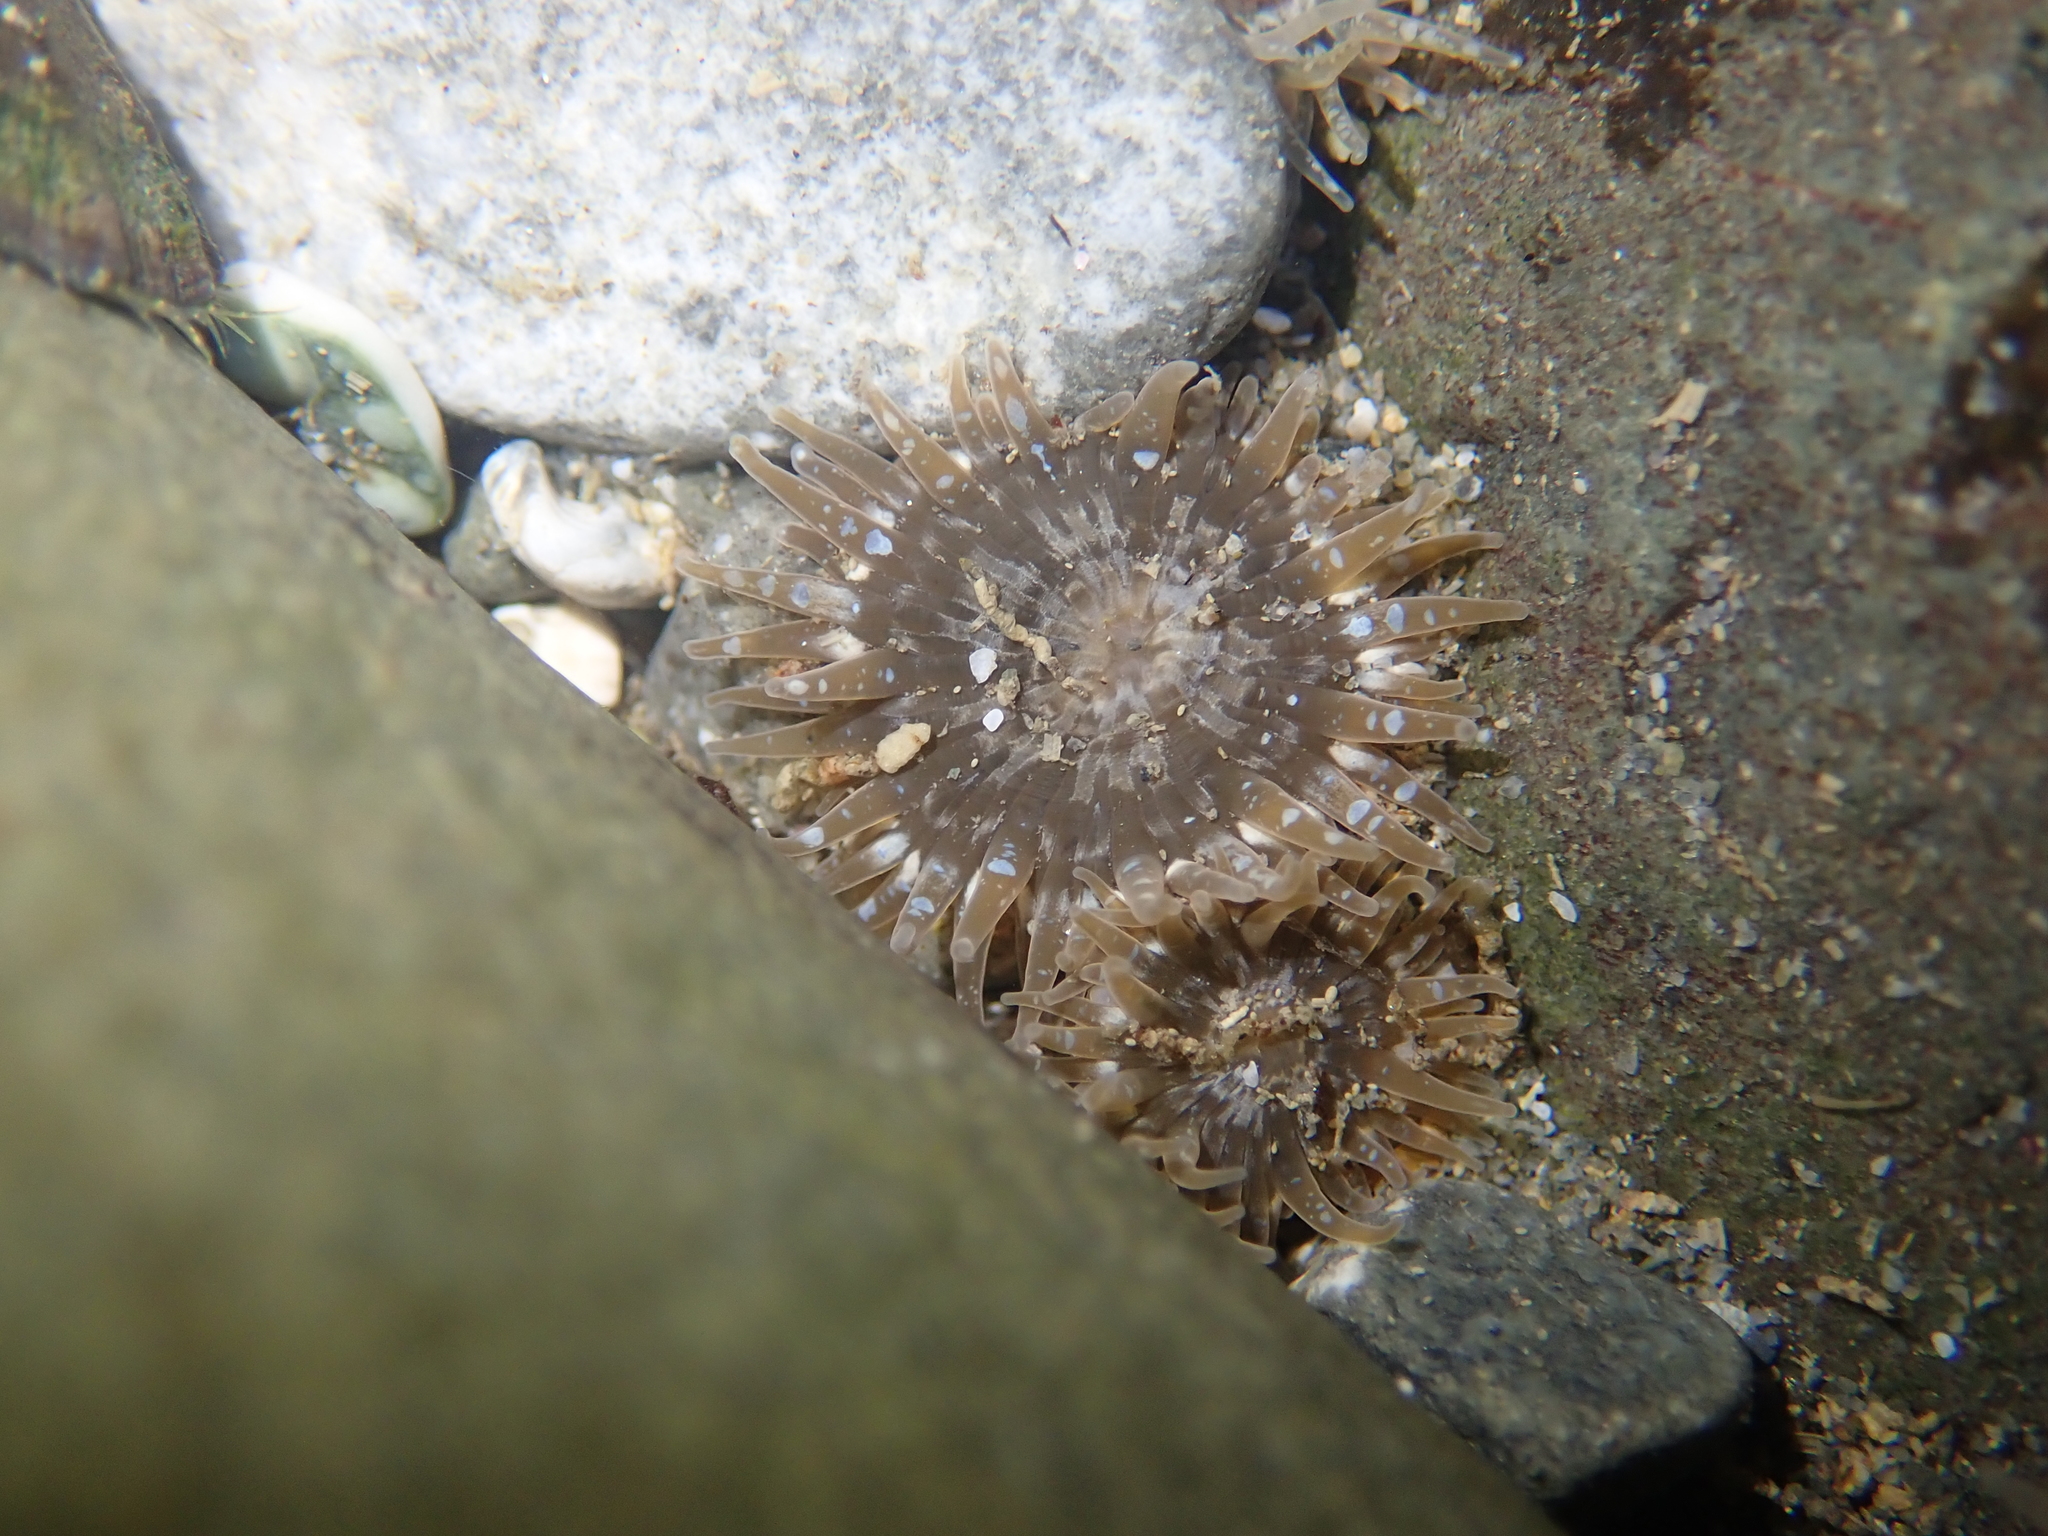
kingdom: Animalia
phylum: Cnidaria
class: Anthozoa
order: Actiniaria
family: Actiniidae
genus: Anthopleura
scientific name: Anthopleura hermaphroditica
